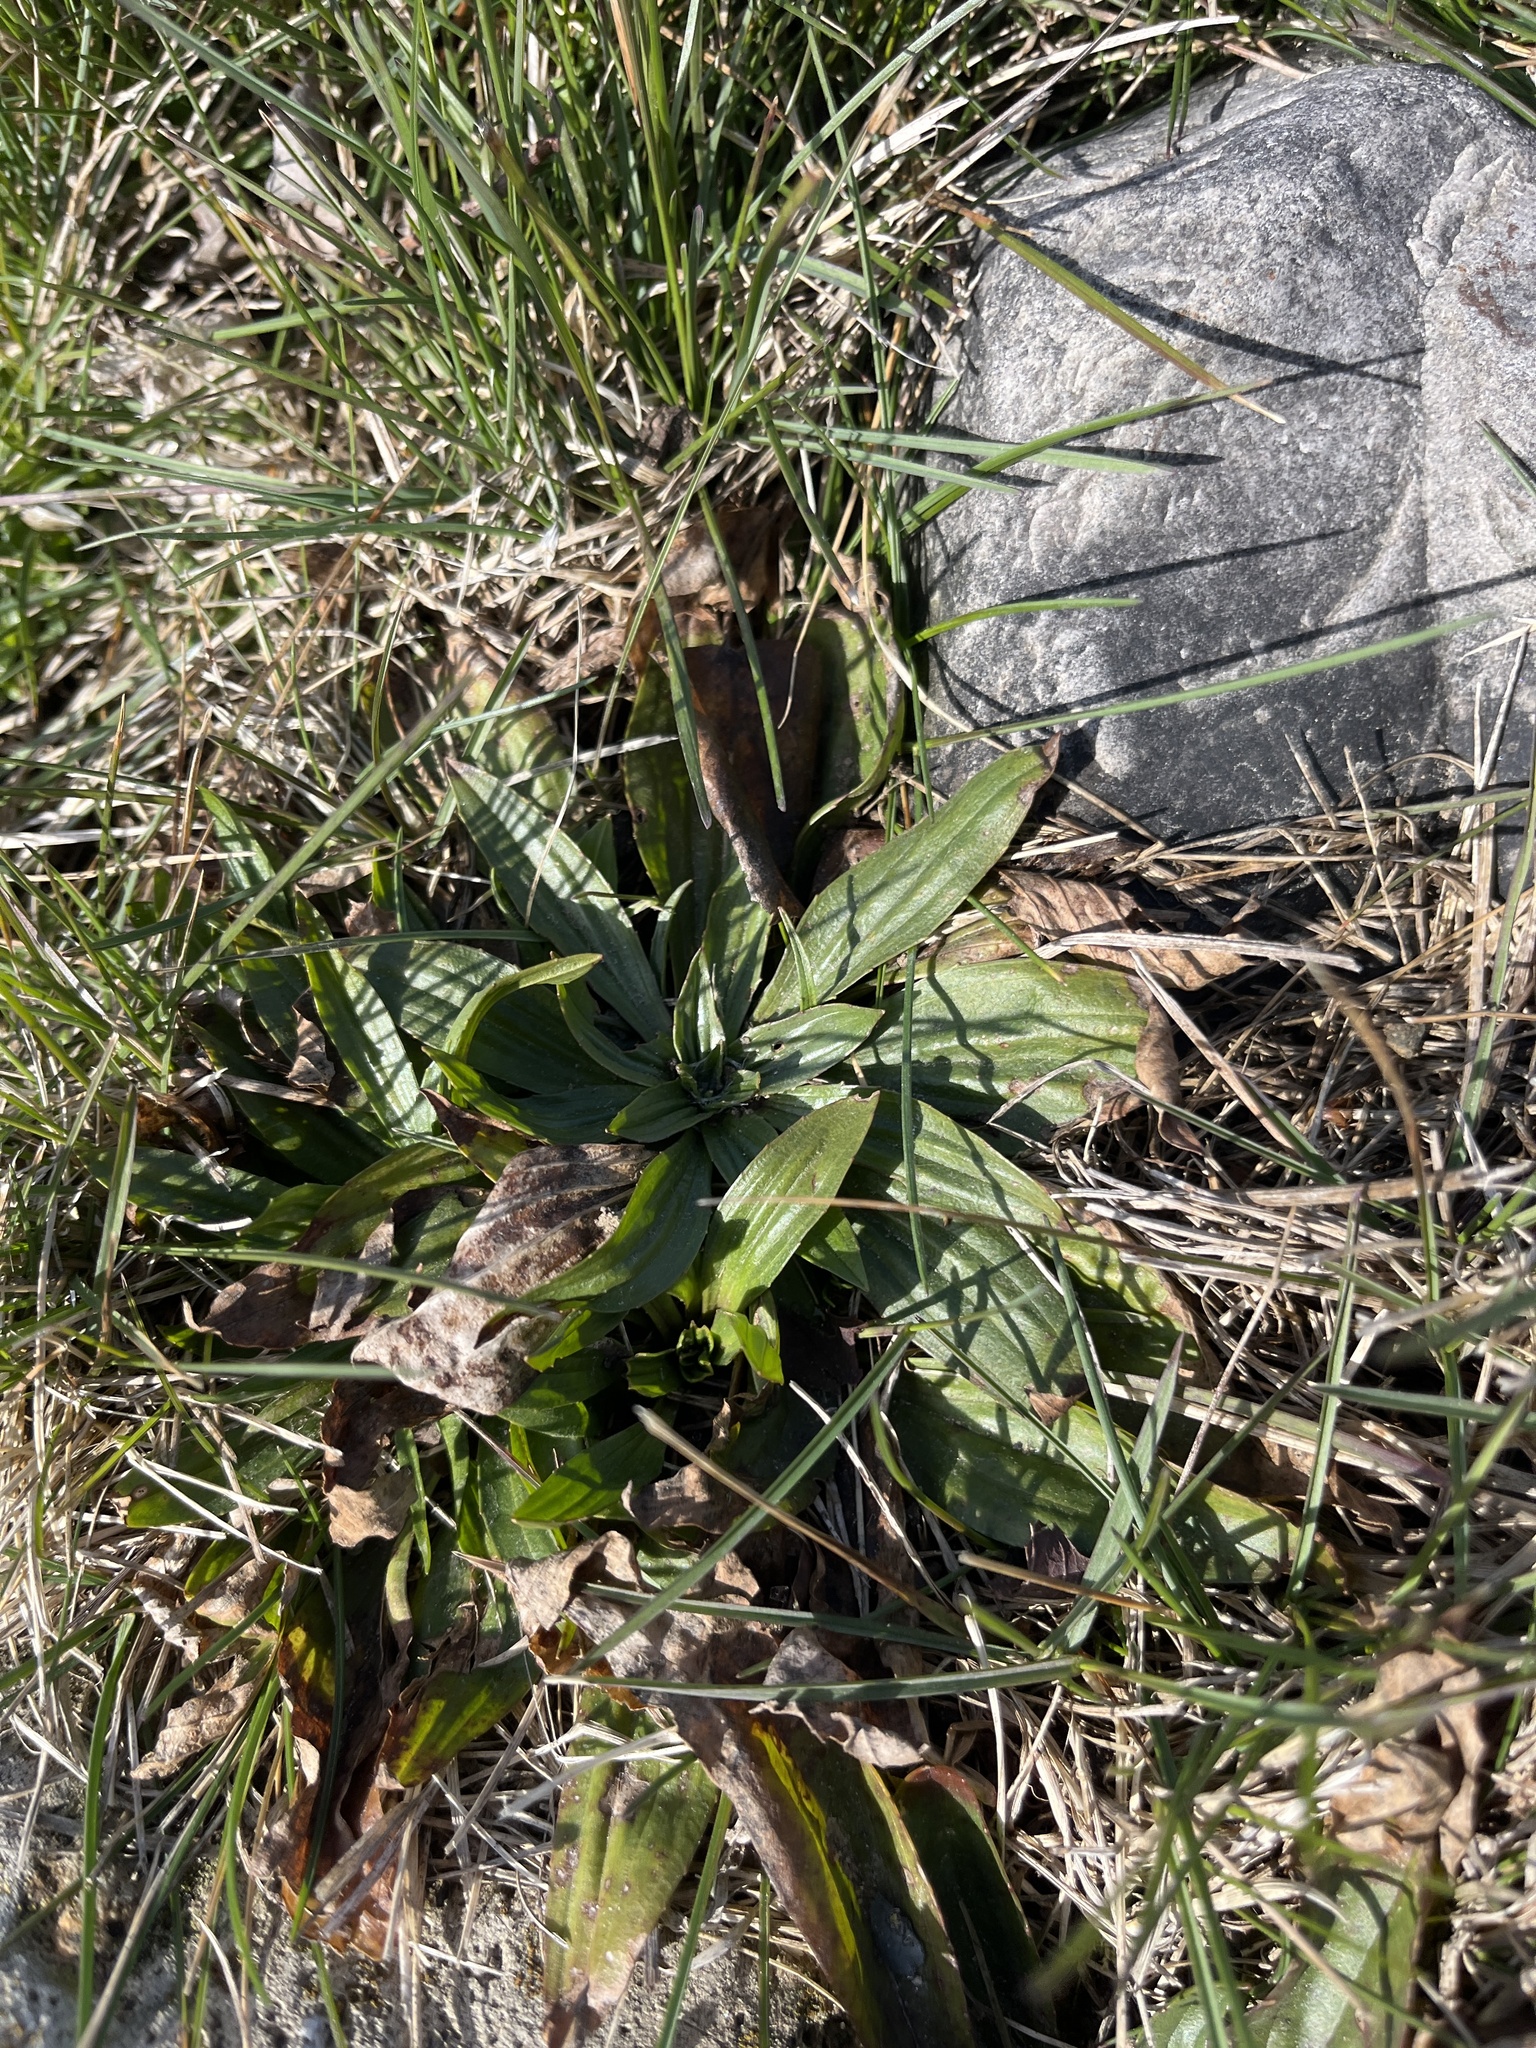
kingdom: Plantae
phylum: Tracheophyta
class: Magnoliopsida
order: Lamiales
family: Plantaginaceae
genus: Plantago
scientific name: Plantago lanceolata
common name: Ribwort plantain
